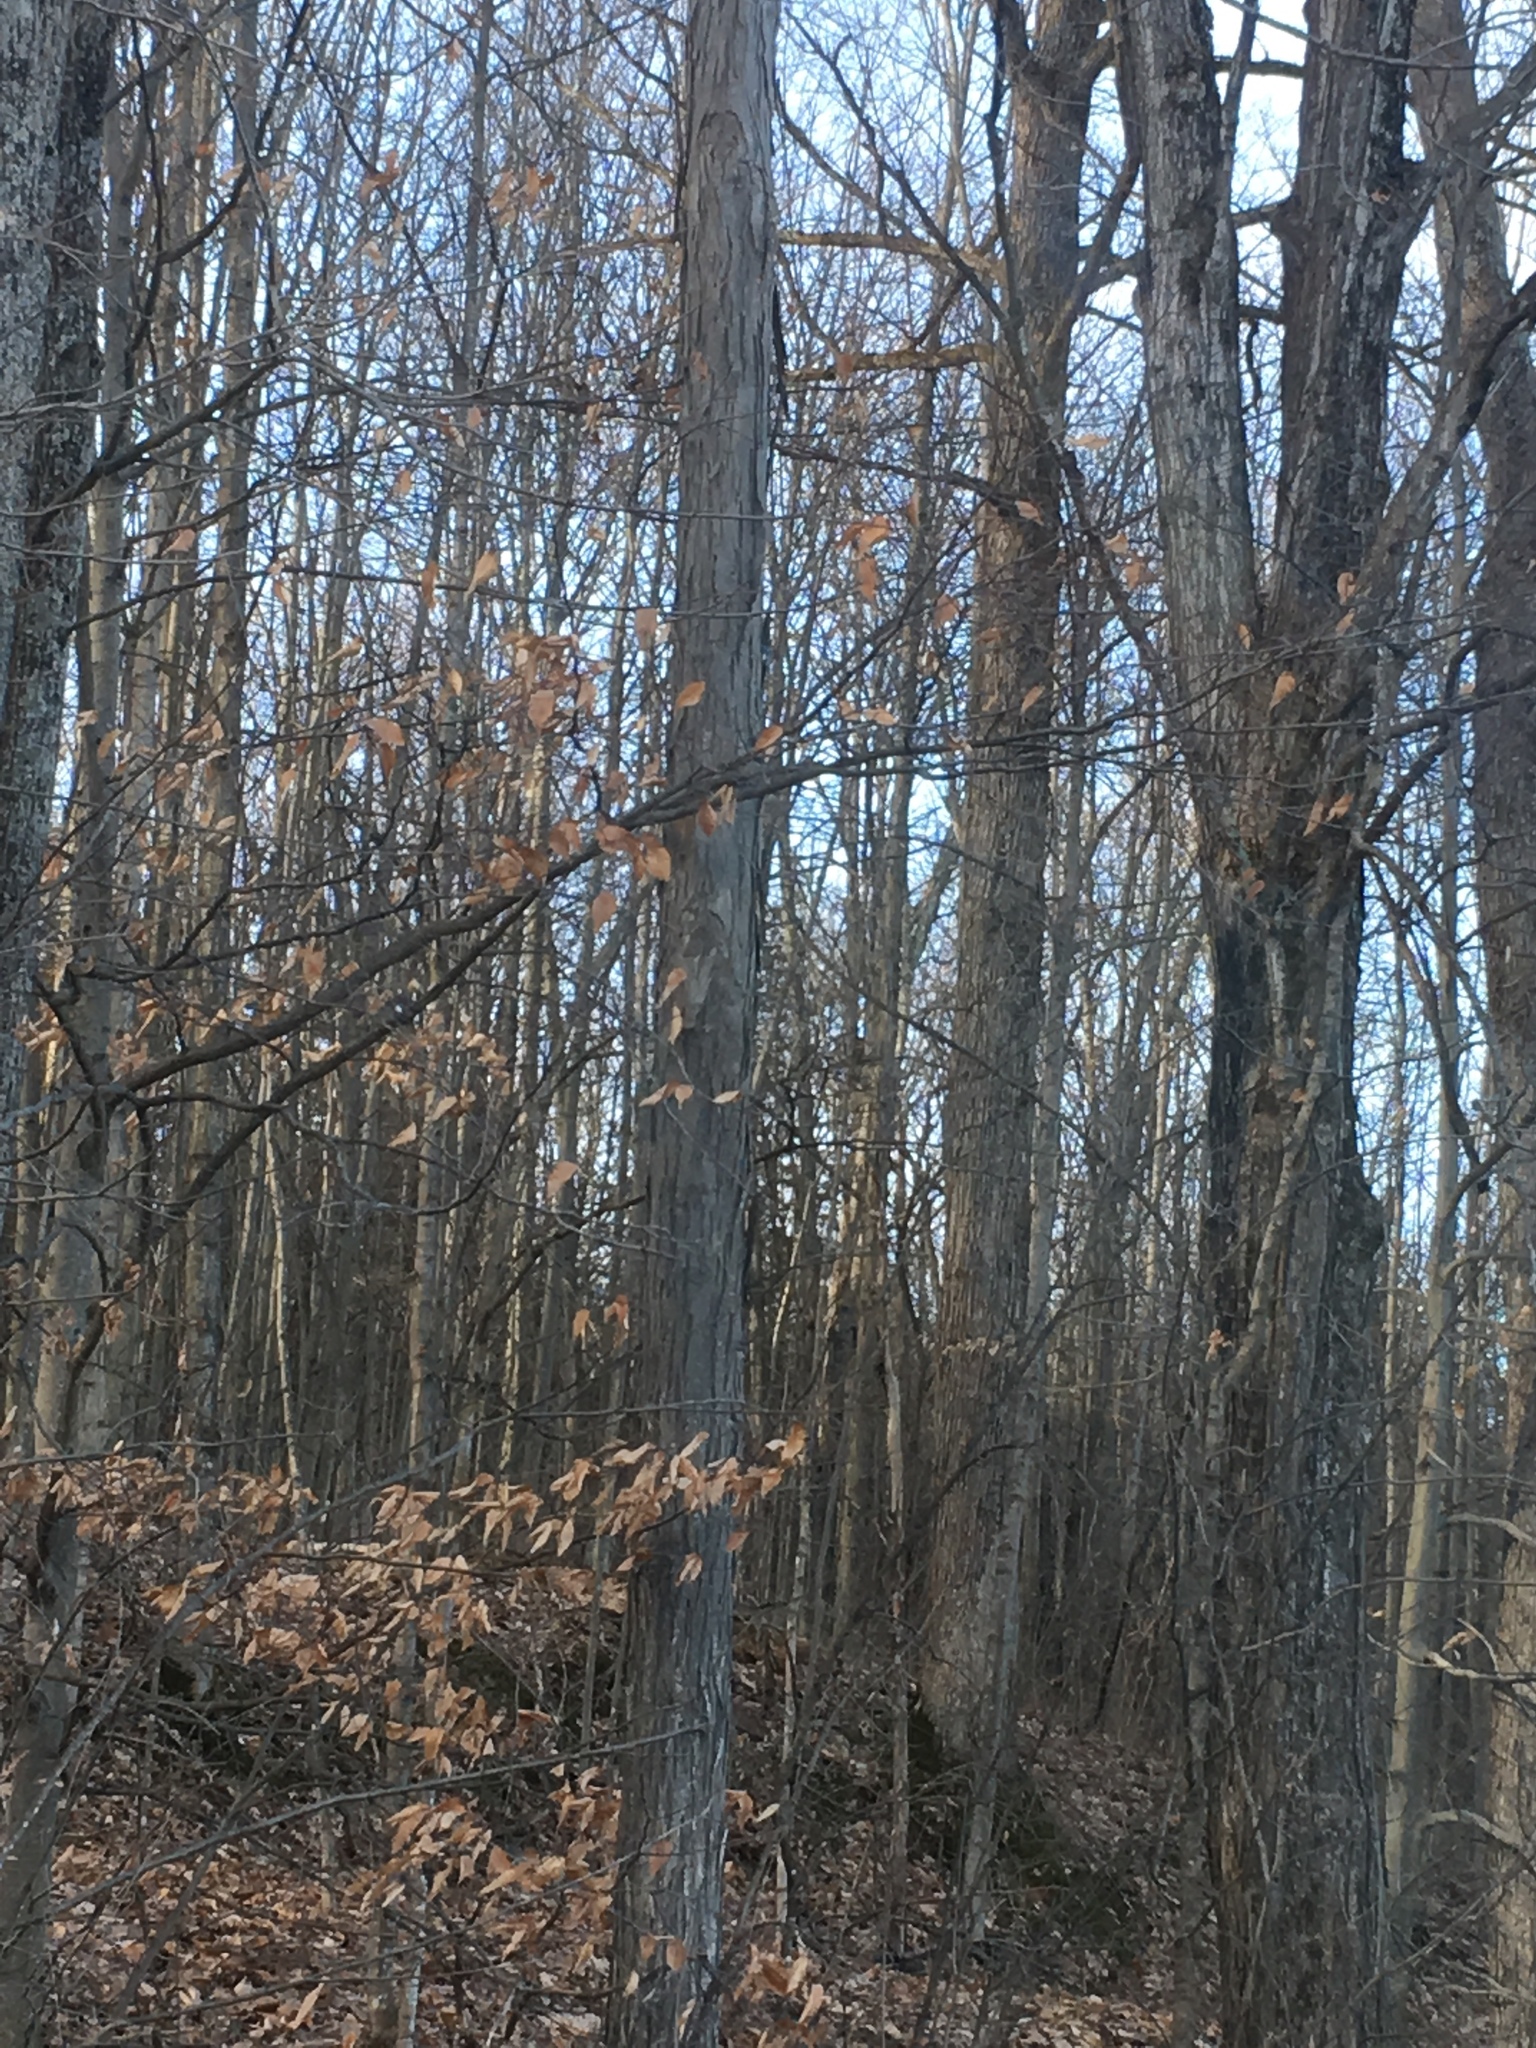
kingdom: Plantae
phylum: Tracheophyta
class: Magnoliopsida
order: Fagales
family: Juglandaceae
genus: Carya
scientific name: Carya ovata
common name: Shagbark hickory
